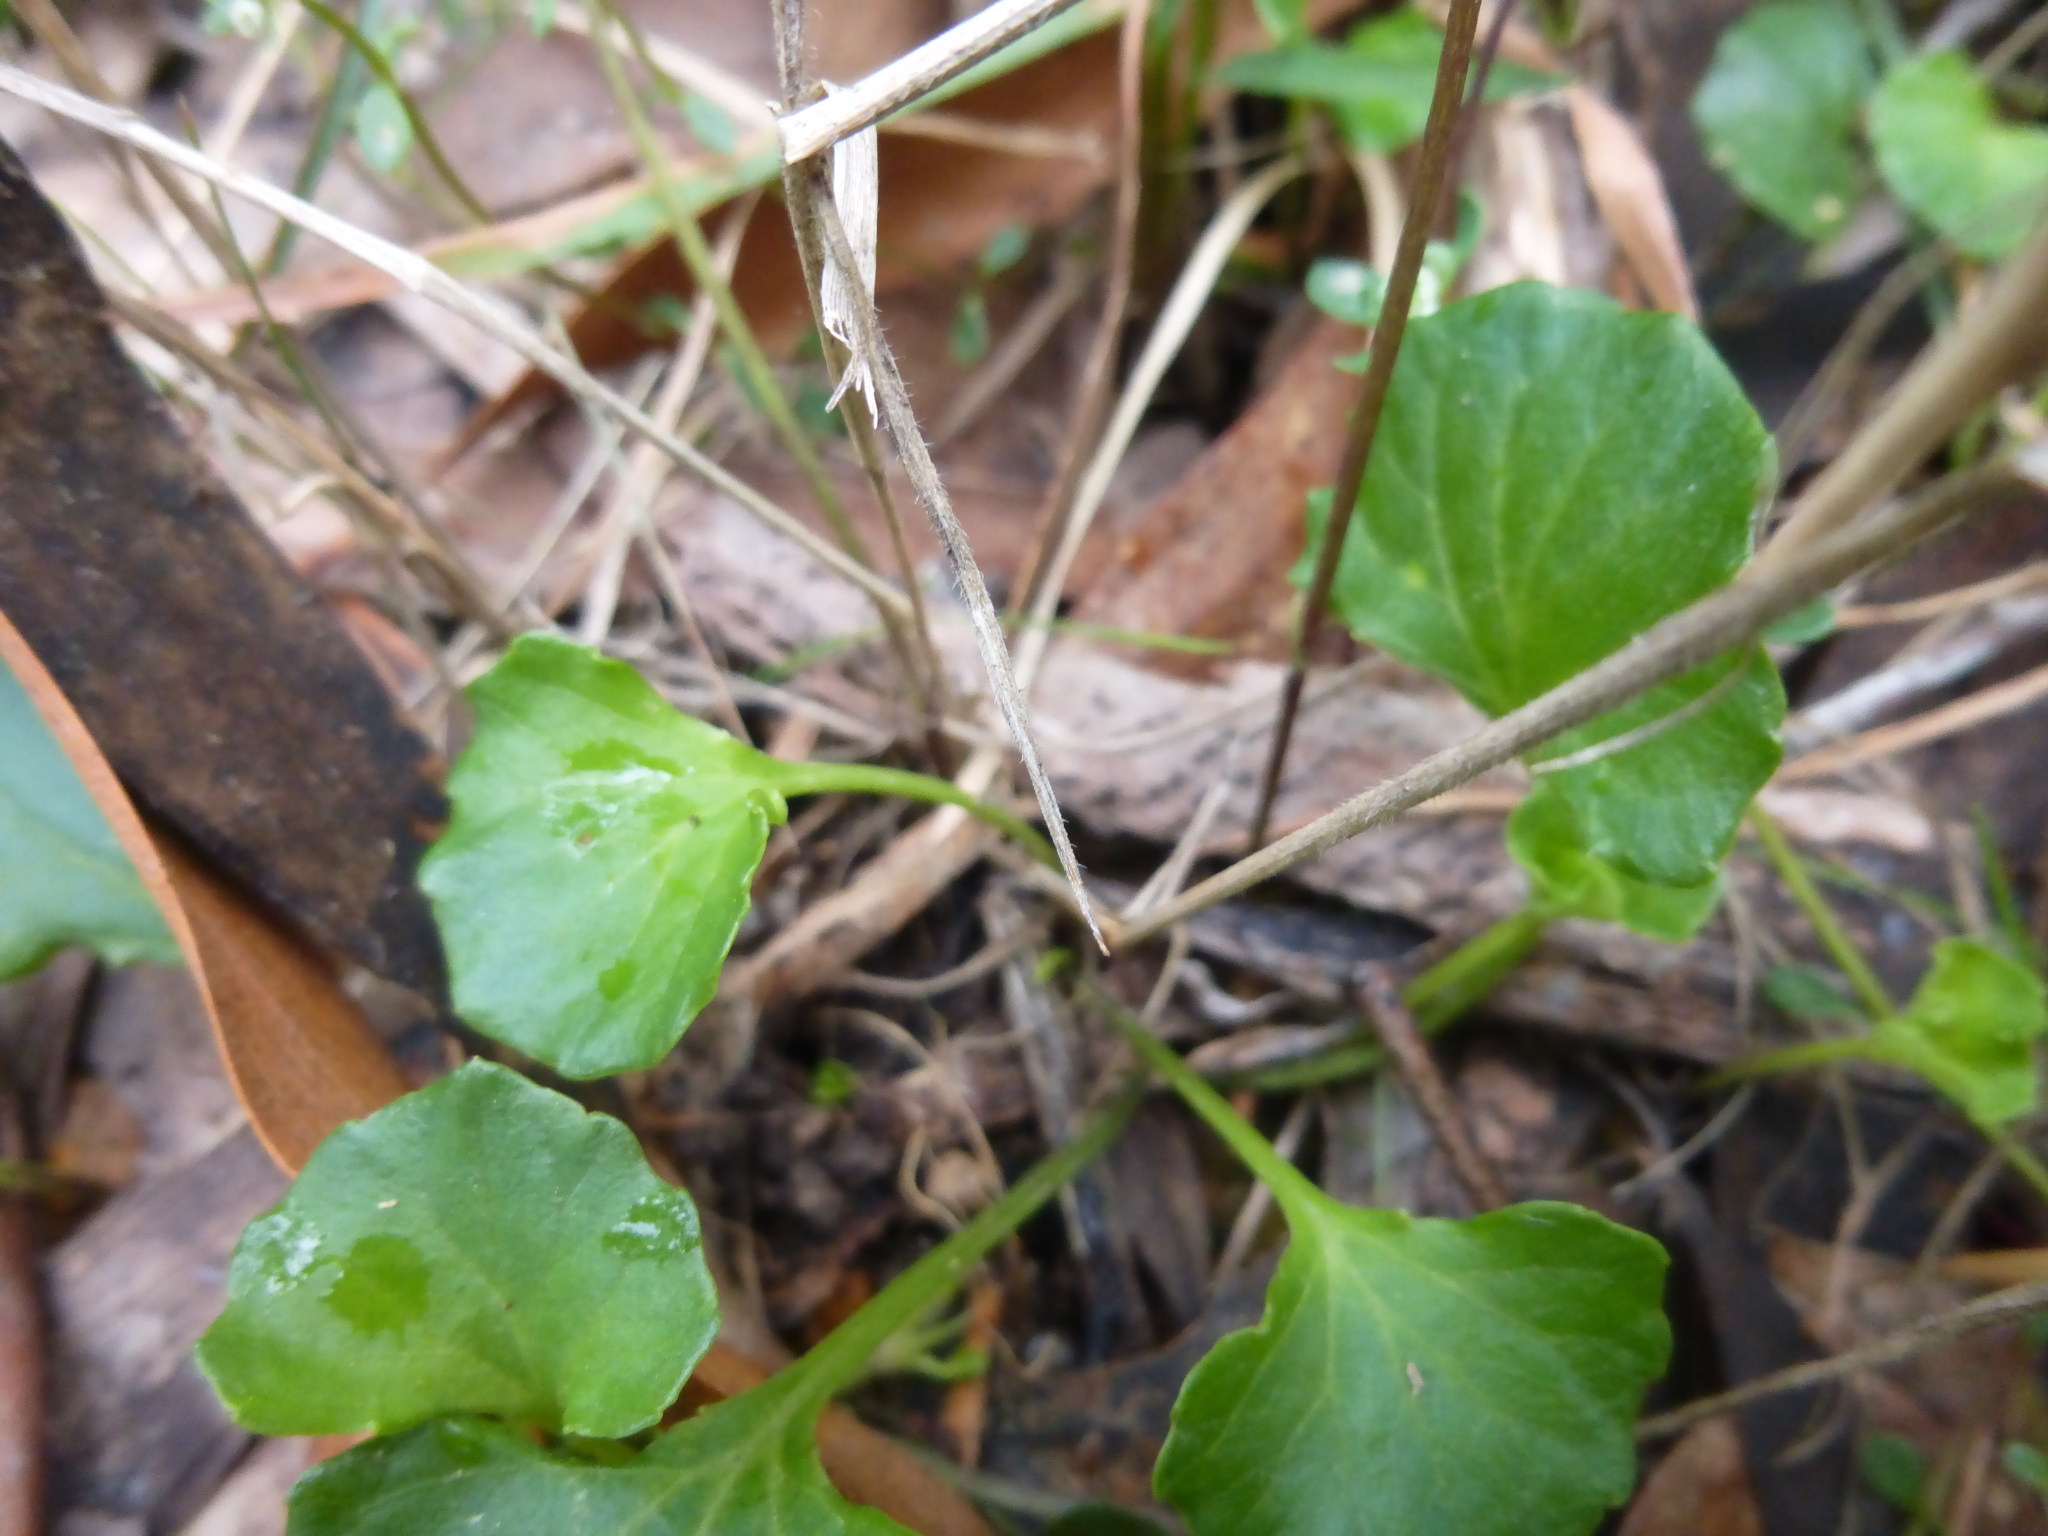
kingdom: Plantae
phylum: Tracheophyta
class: Magnoliopsida
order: Malpighiales
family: Violaceae
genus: Viola
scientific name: Viola hederacea
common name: Australian violet
